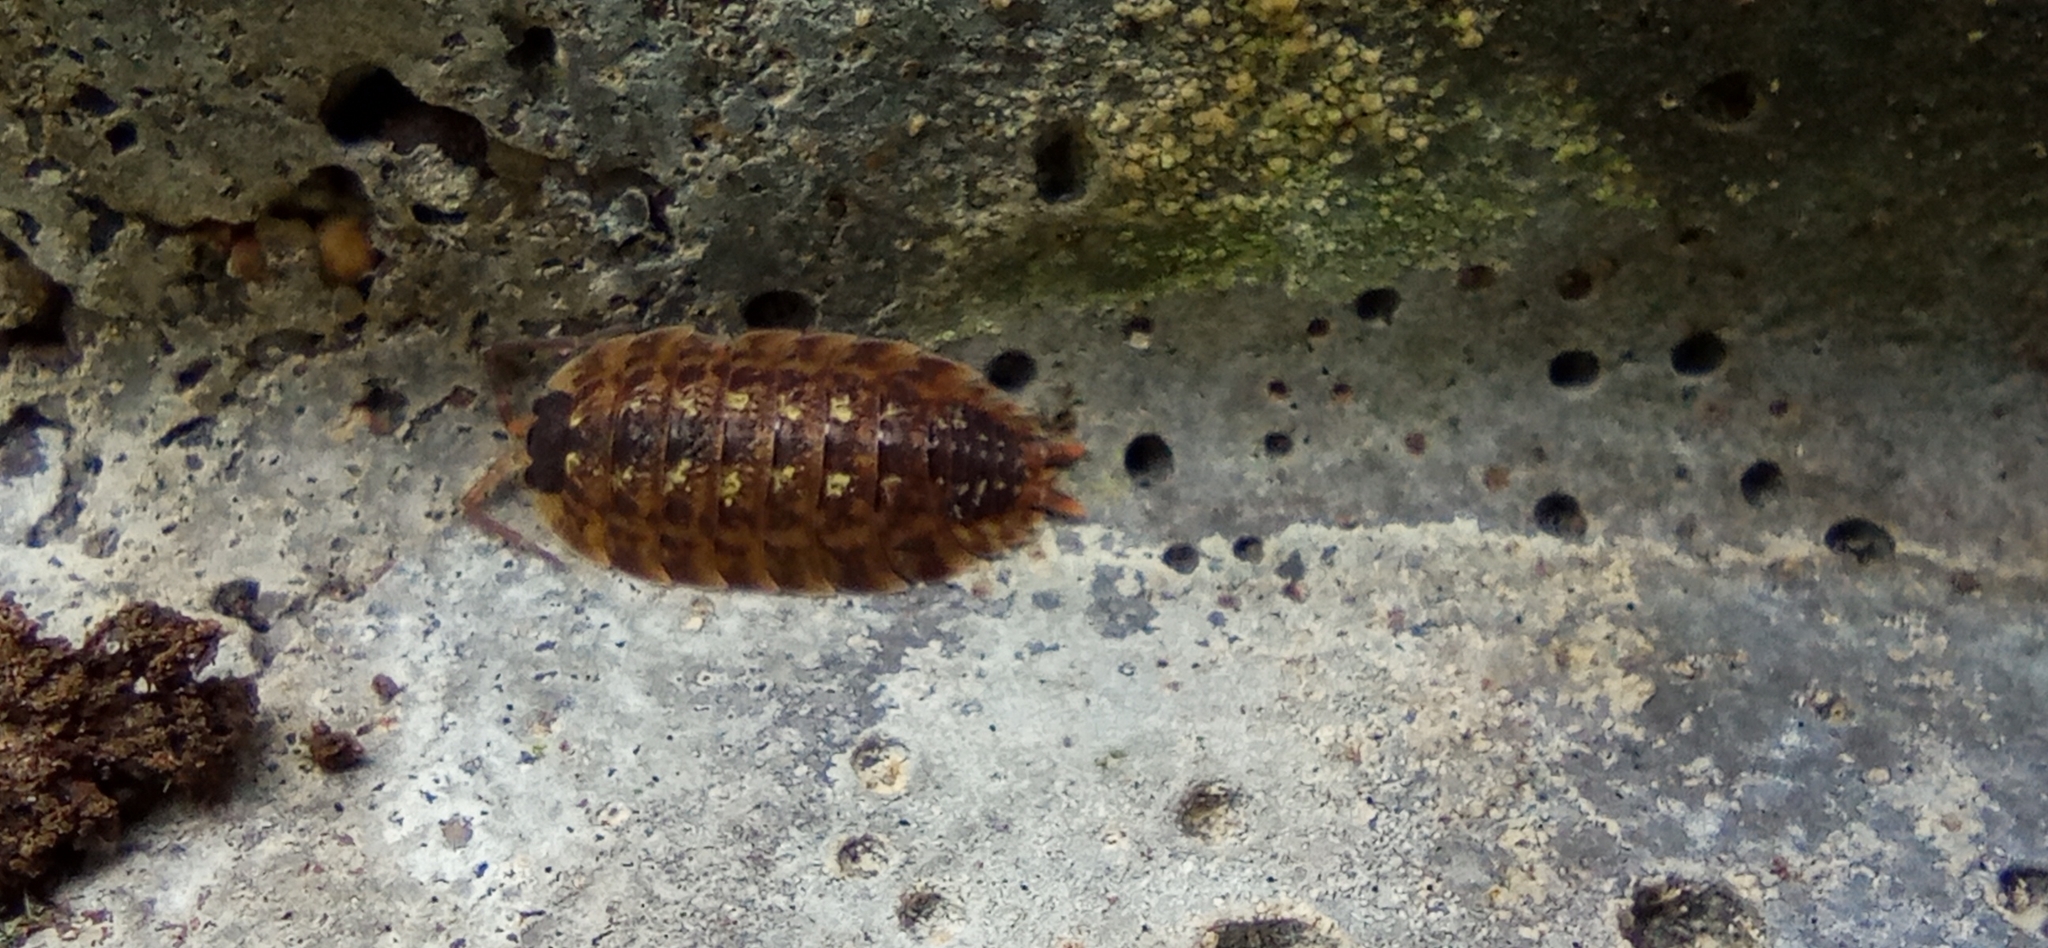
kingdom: Animalia
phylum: Arthropoda
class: Malacostraca
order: Isopoda
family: Porcellionidae
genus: Porcellio
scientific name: Porcellio spinicornis
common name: Painted woodlouse
